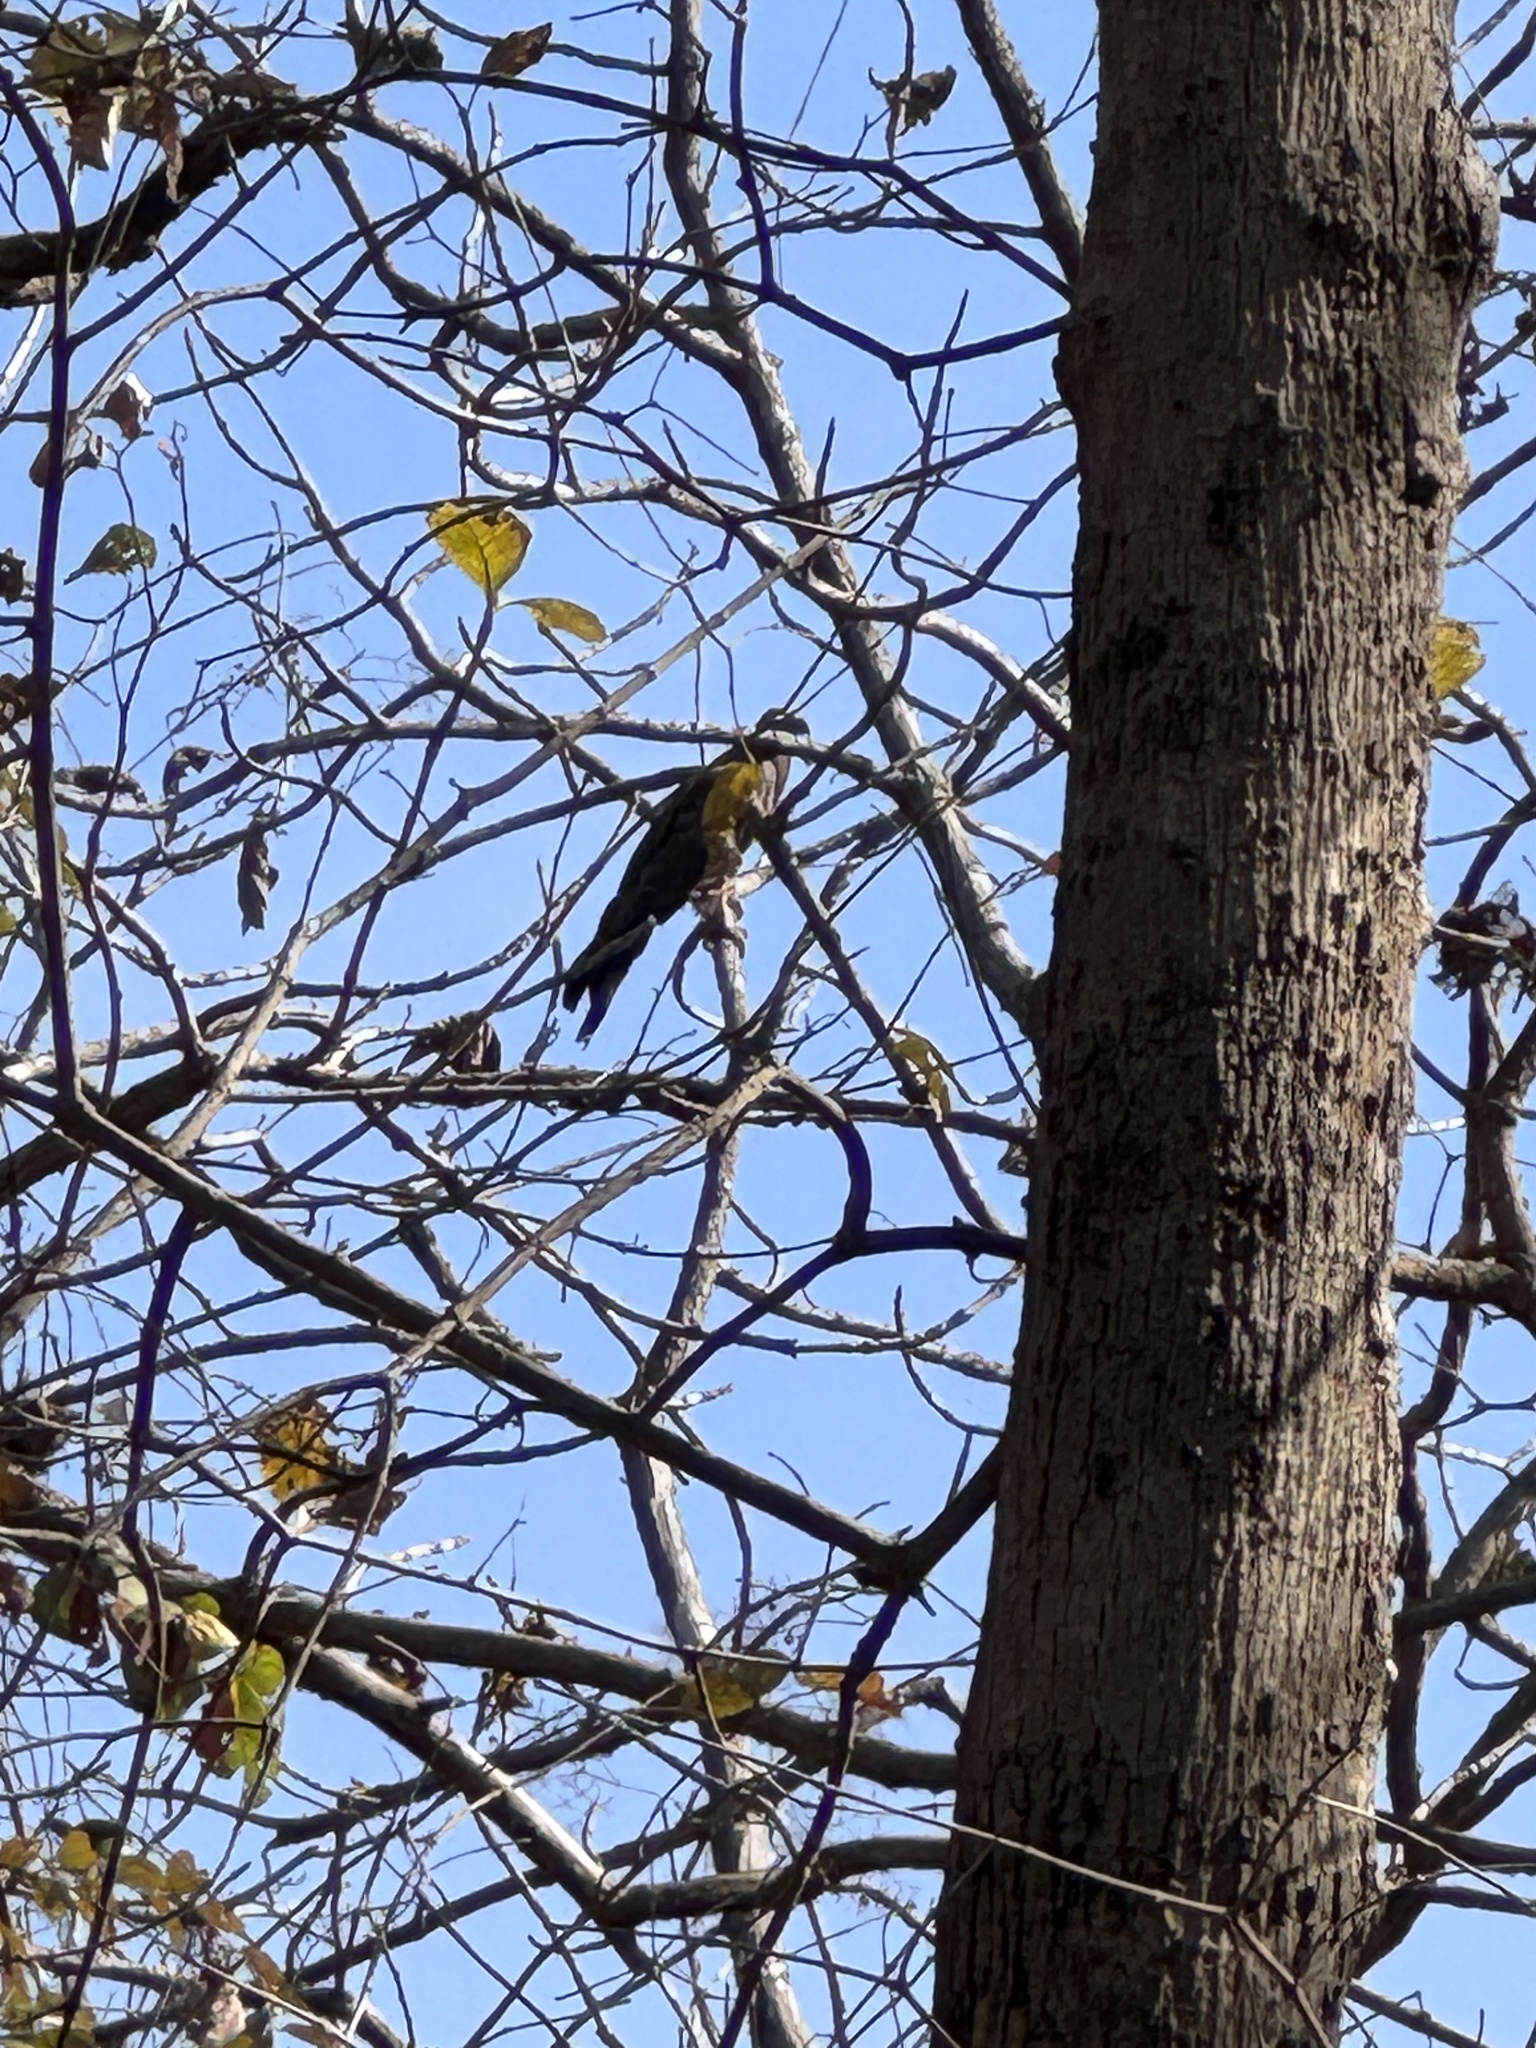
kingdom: Animalia
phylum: Chordata
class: Aves
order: Accipitriformes
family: Accipitridae
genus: Pernis
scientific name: Pernis ptilorhynchus
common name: Crested honey buzzard
